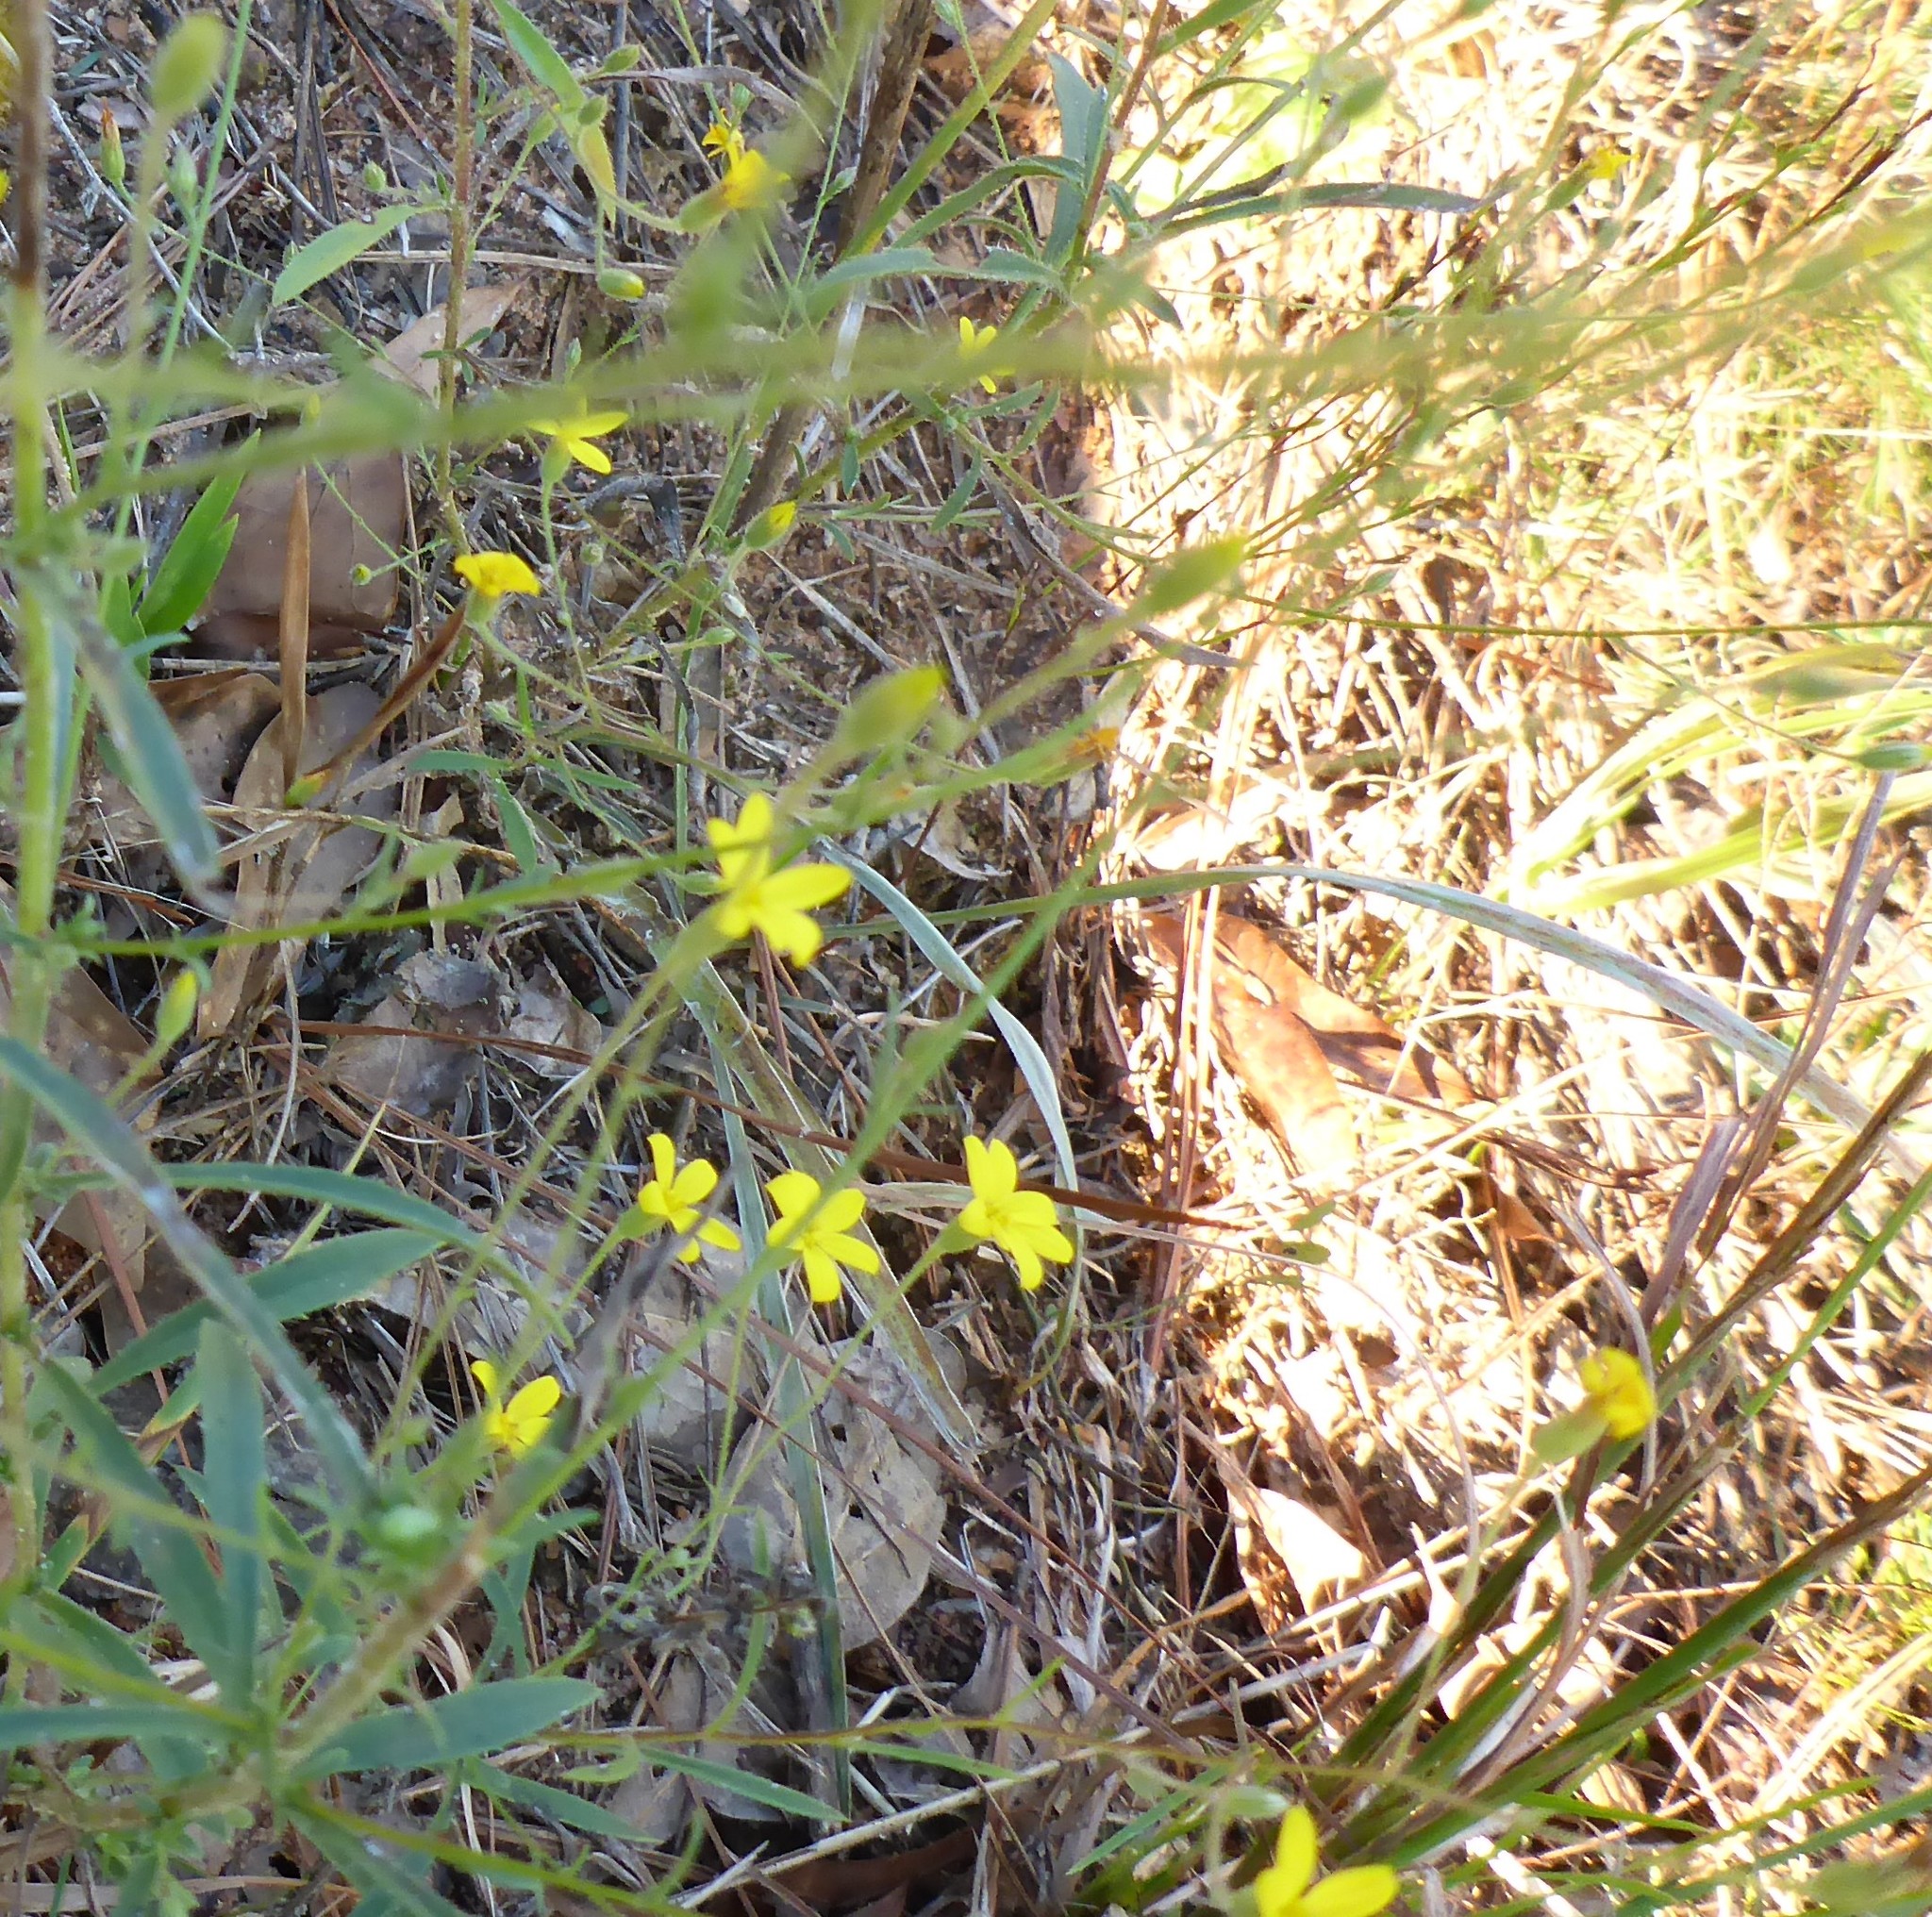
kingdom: Plantae
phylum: Tracheophyta
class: Magnoliopsida
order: Asterales
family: Asteraceae
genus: Croptilon
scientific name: Croptilon divaricatum
